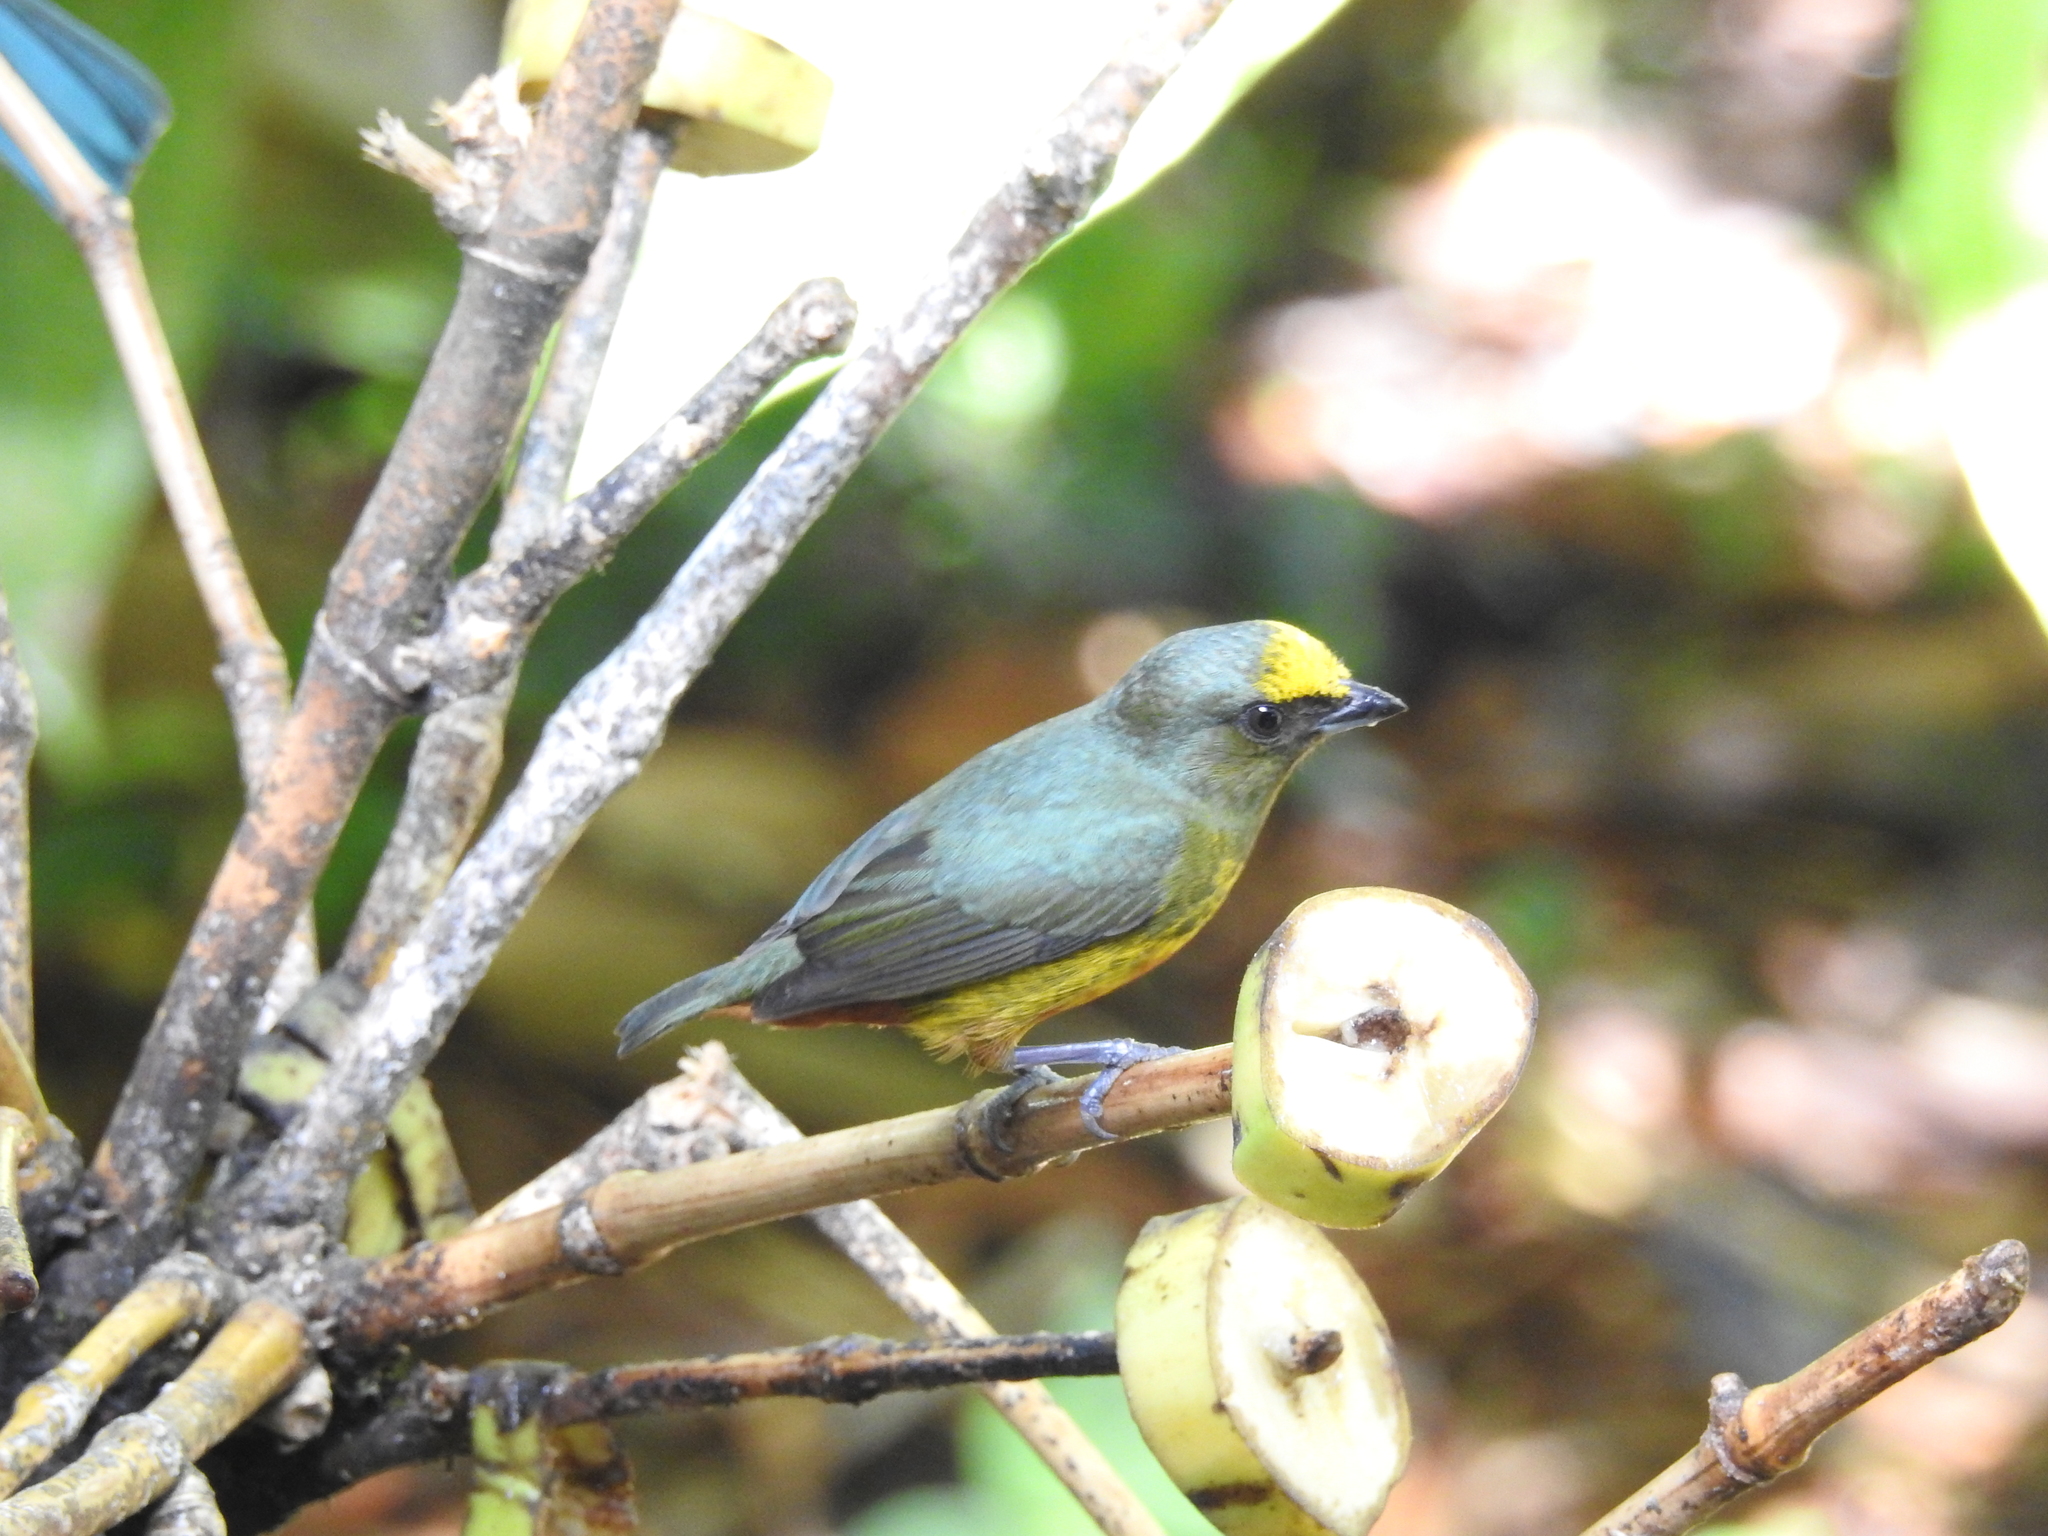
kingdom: Animalia
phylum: Chordata
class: Aves
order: Passeriformes
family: Fringillidae
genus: Euphonia
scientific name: Euphonia gouldi
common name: Olive-backed euphonia
